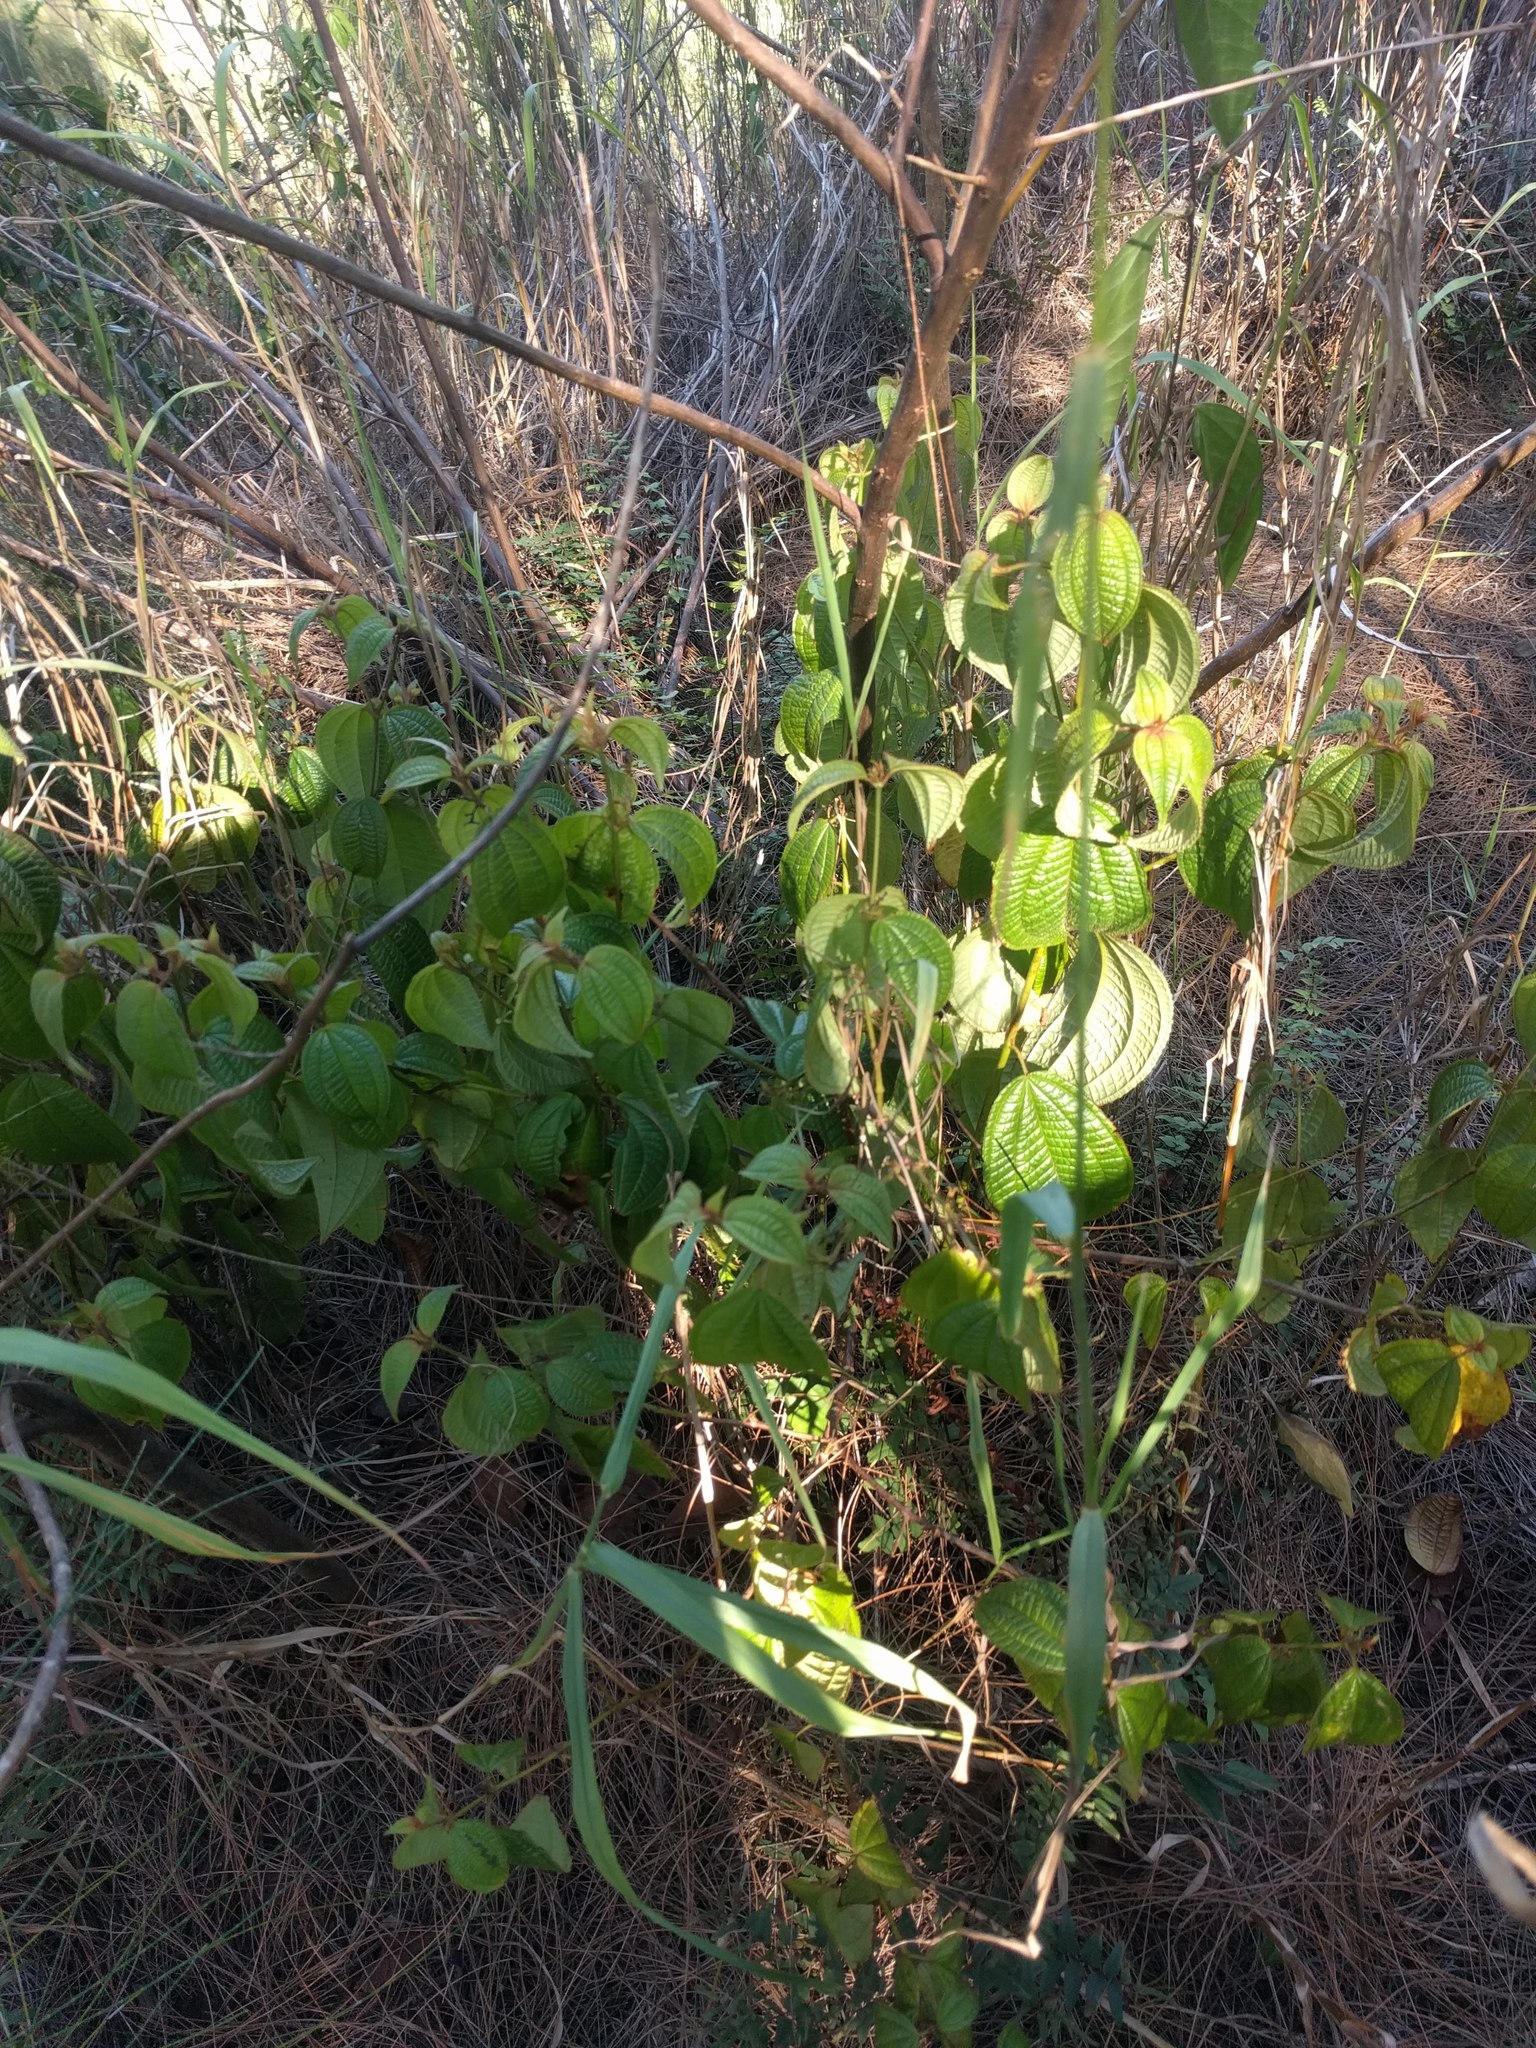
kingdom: Plantae
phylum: Tracheophyta
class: Magnoliopsida
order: Myrtales
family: Melastomataceae
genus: Miconia
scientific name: Miconia crenata
